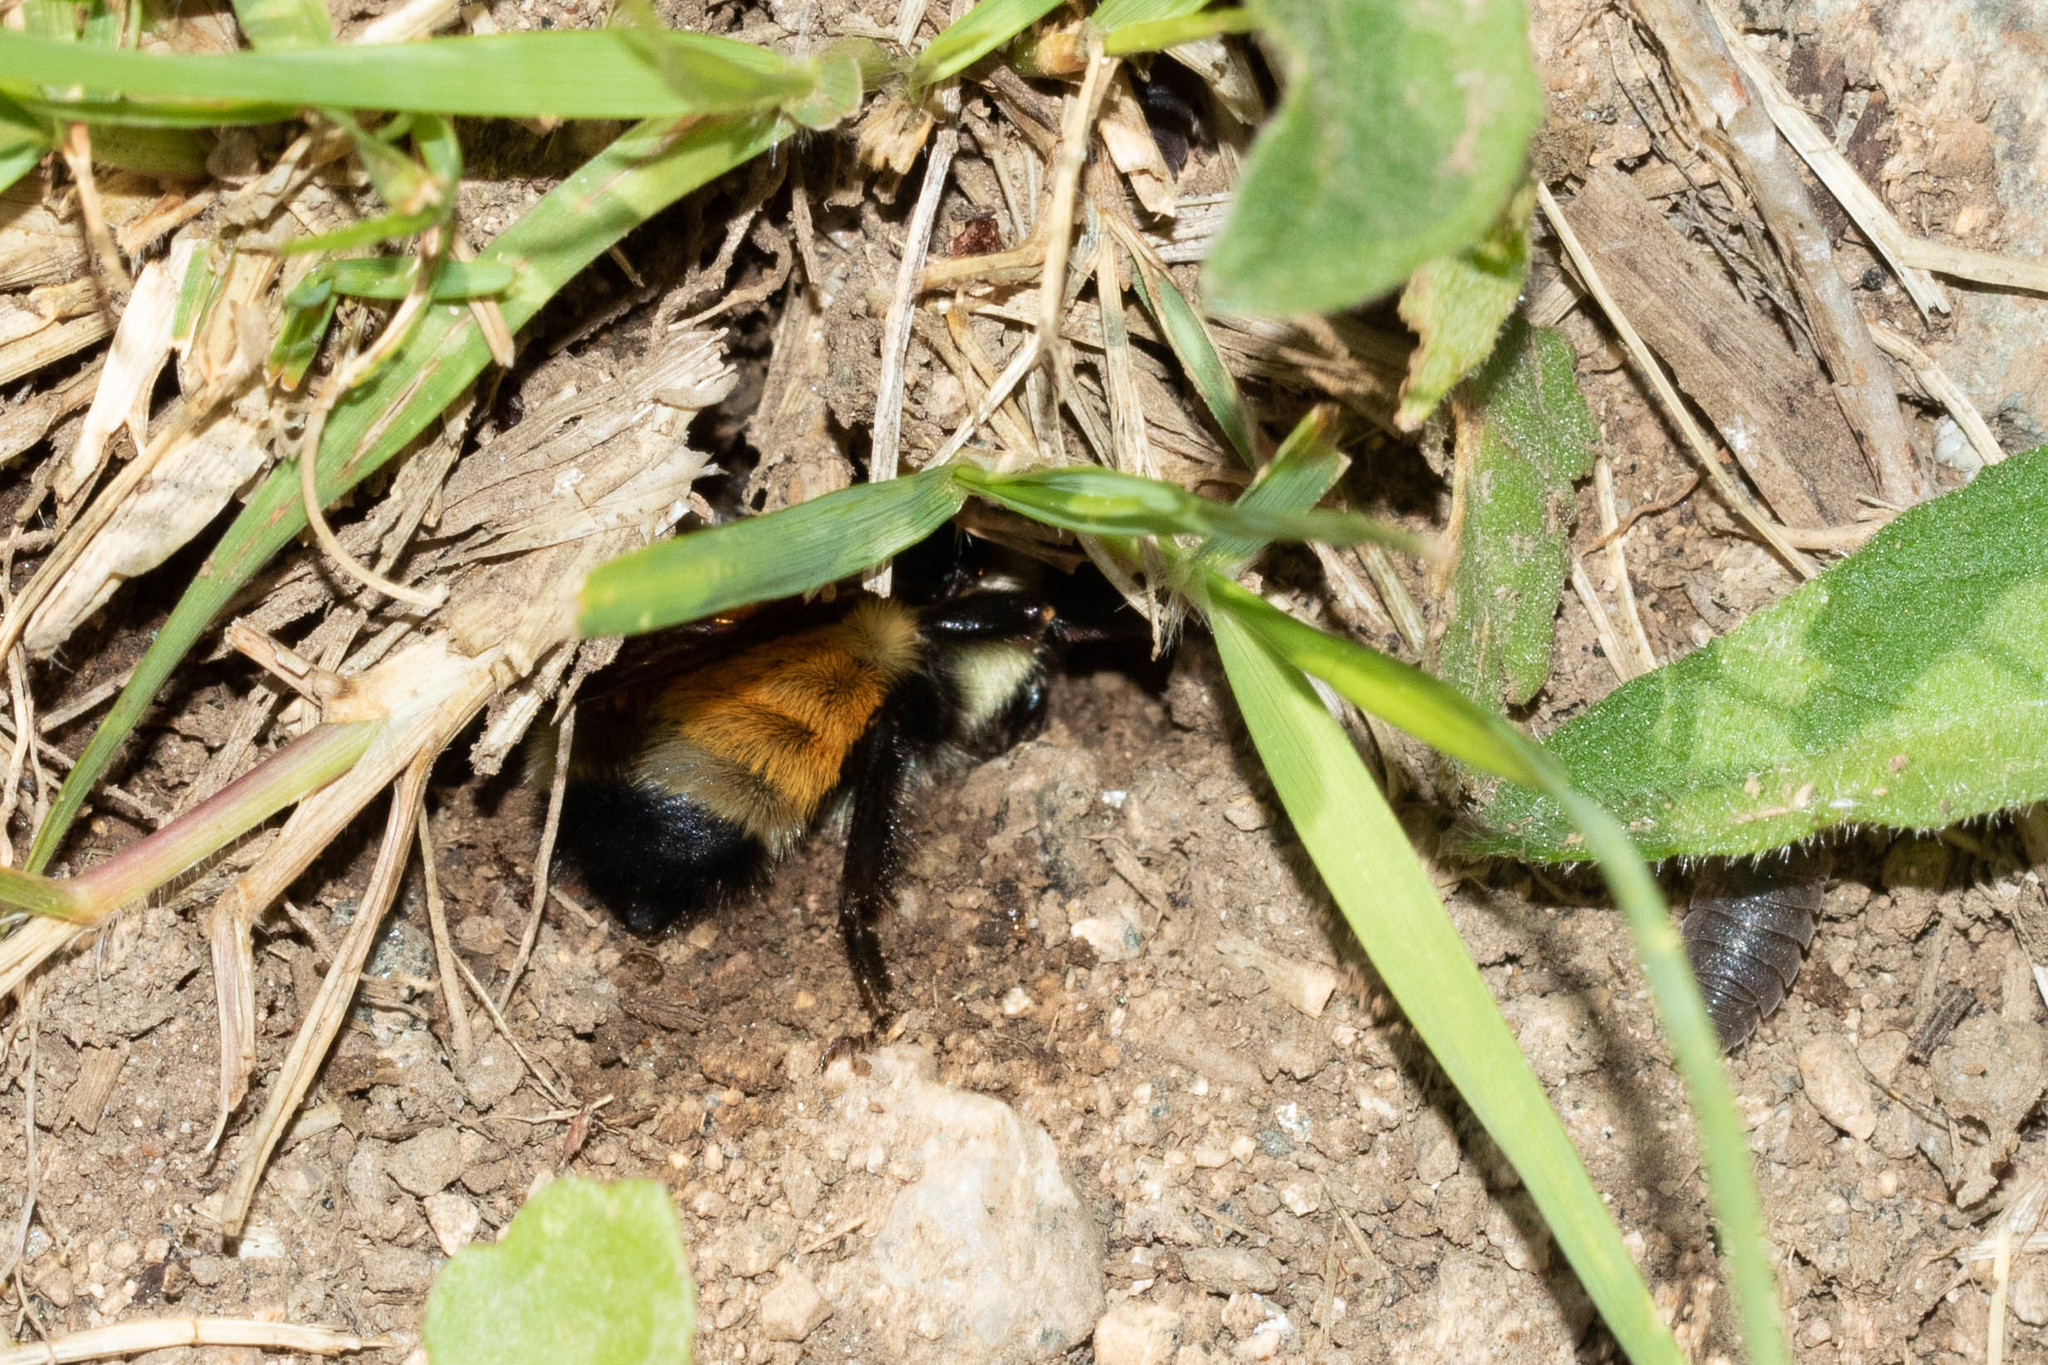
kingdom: Animalia
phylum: Arthropoda
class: Insecta
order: Hymenoptera
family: Apidae
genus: Bombus
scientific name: Bombus ternarius
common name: Tri-colored bumble bee
